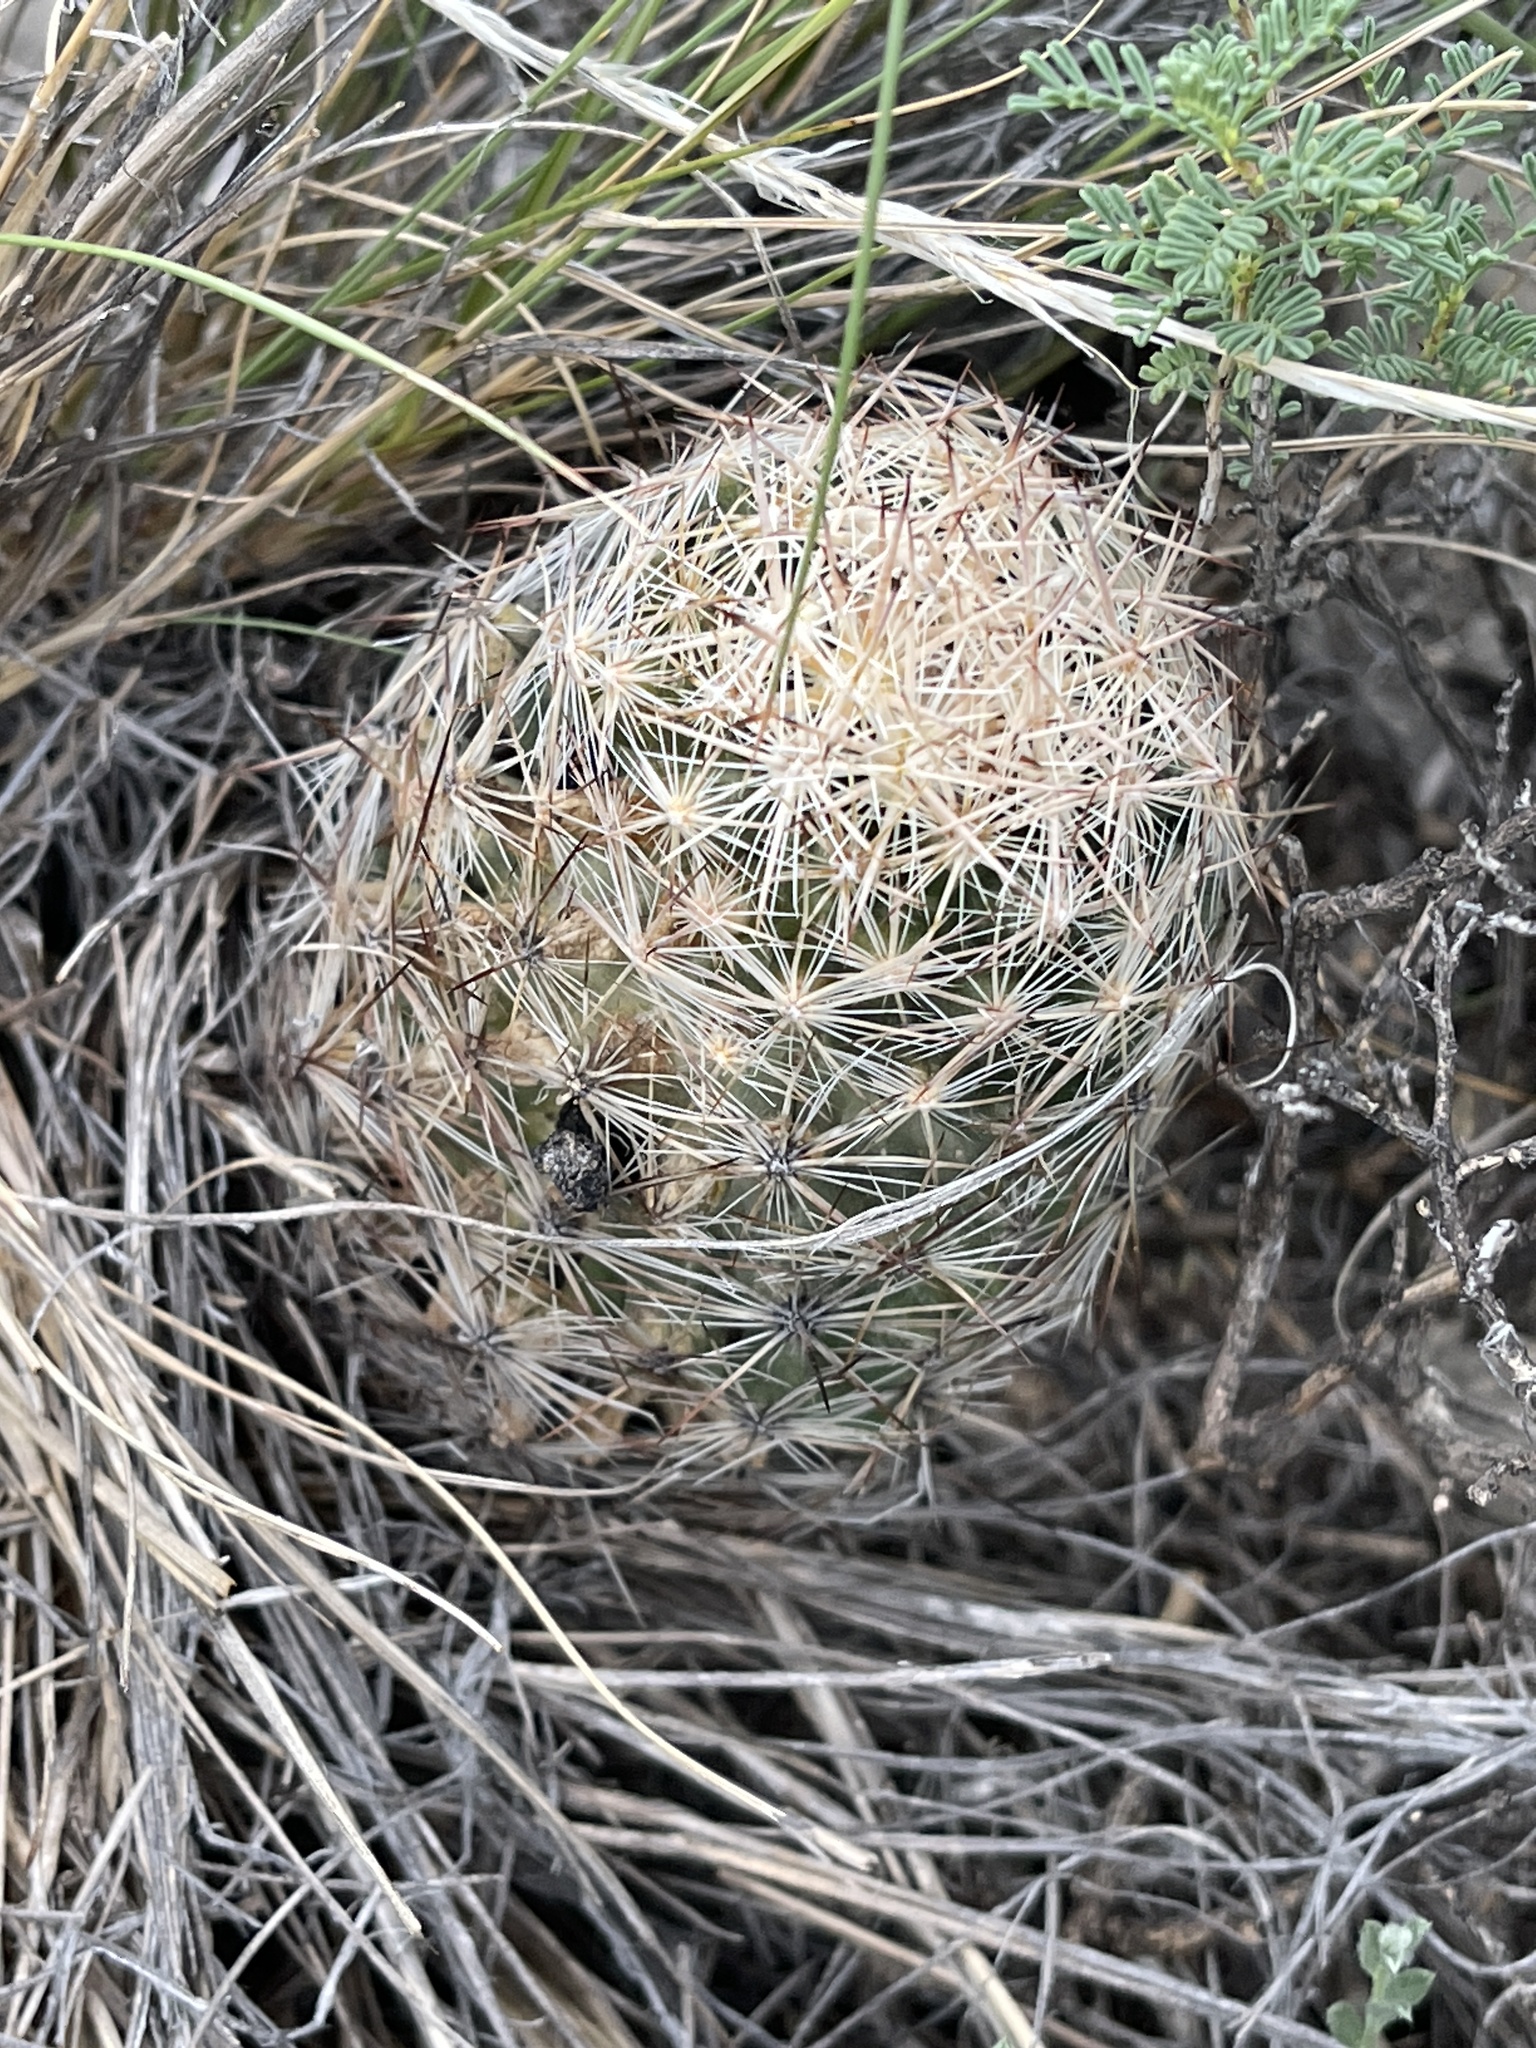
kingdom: Plantae
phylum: Tracheophyta
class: Magnoliopsida
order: Caryophyllales
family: Cactaceae
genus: Pelecyphora
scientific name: Pelecyphora vivipara
